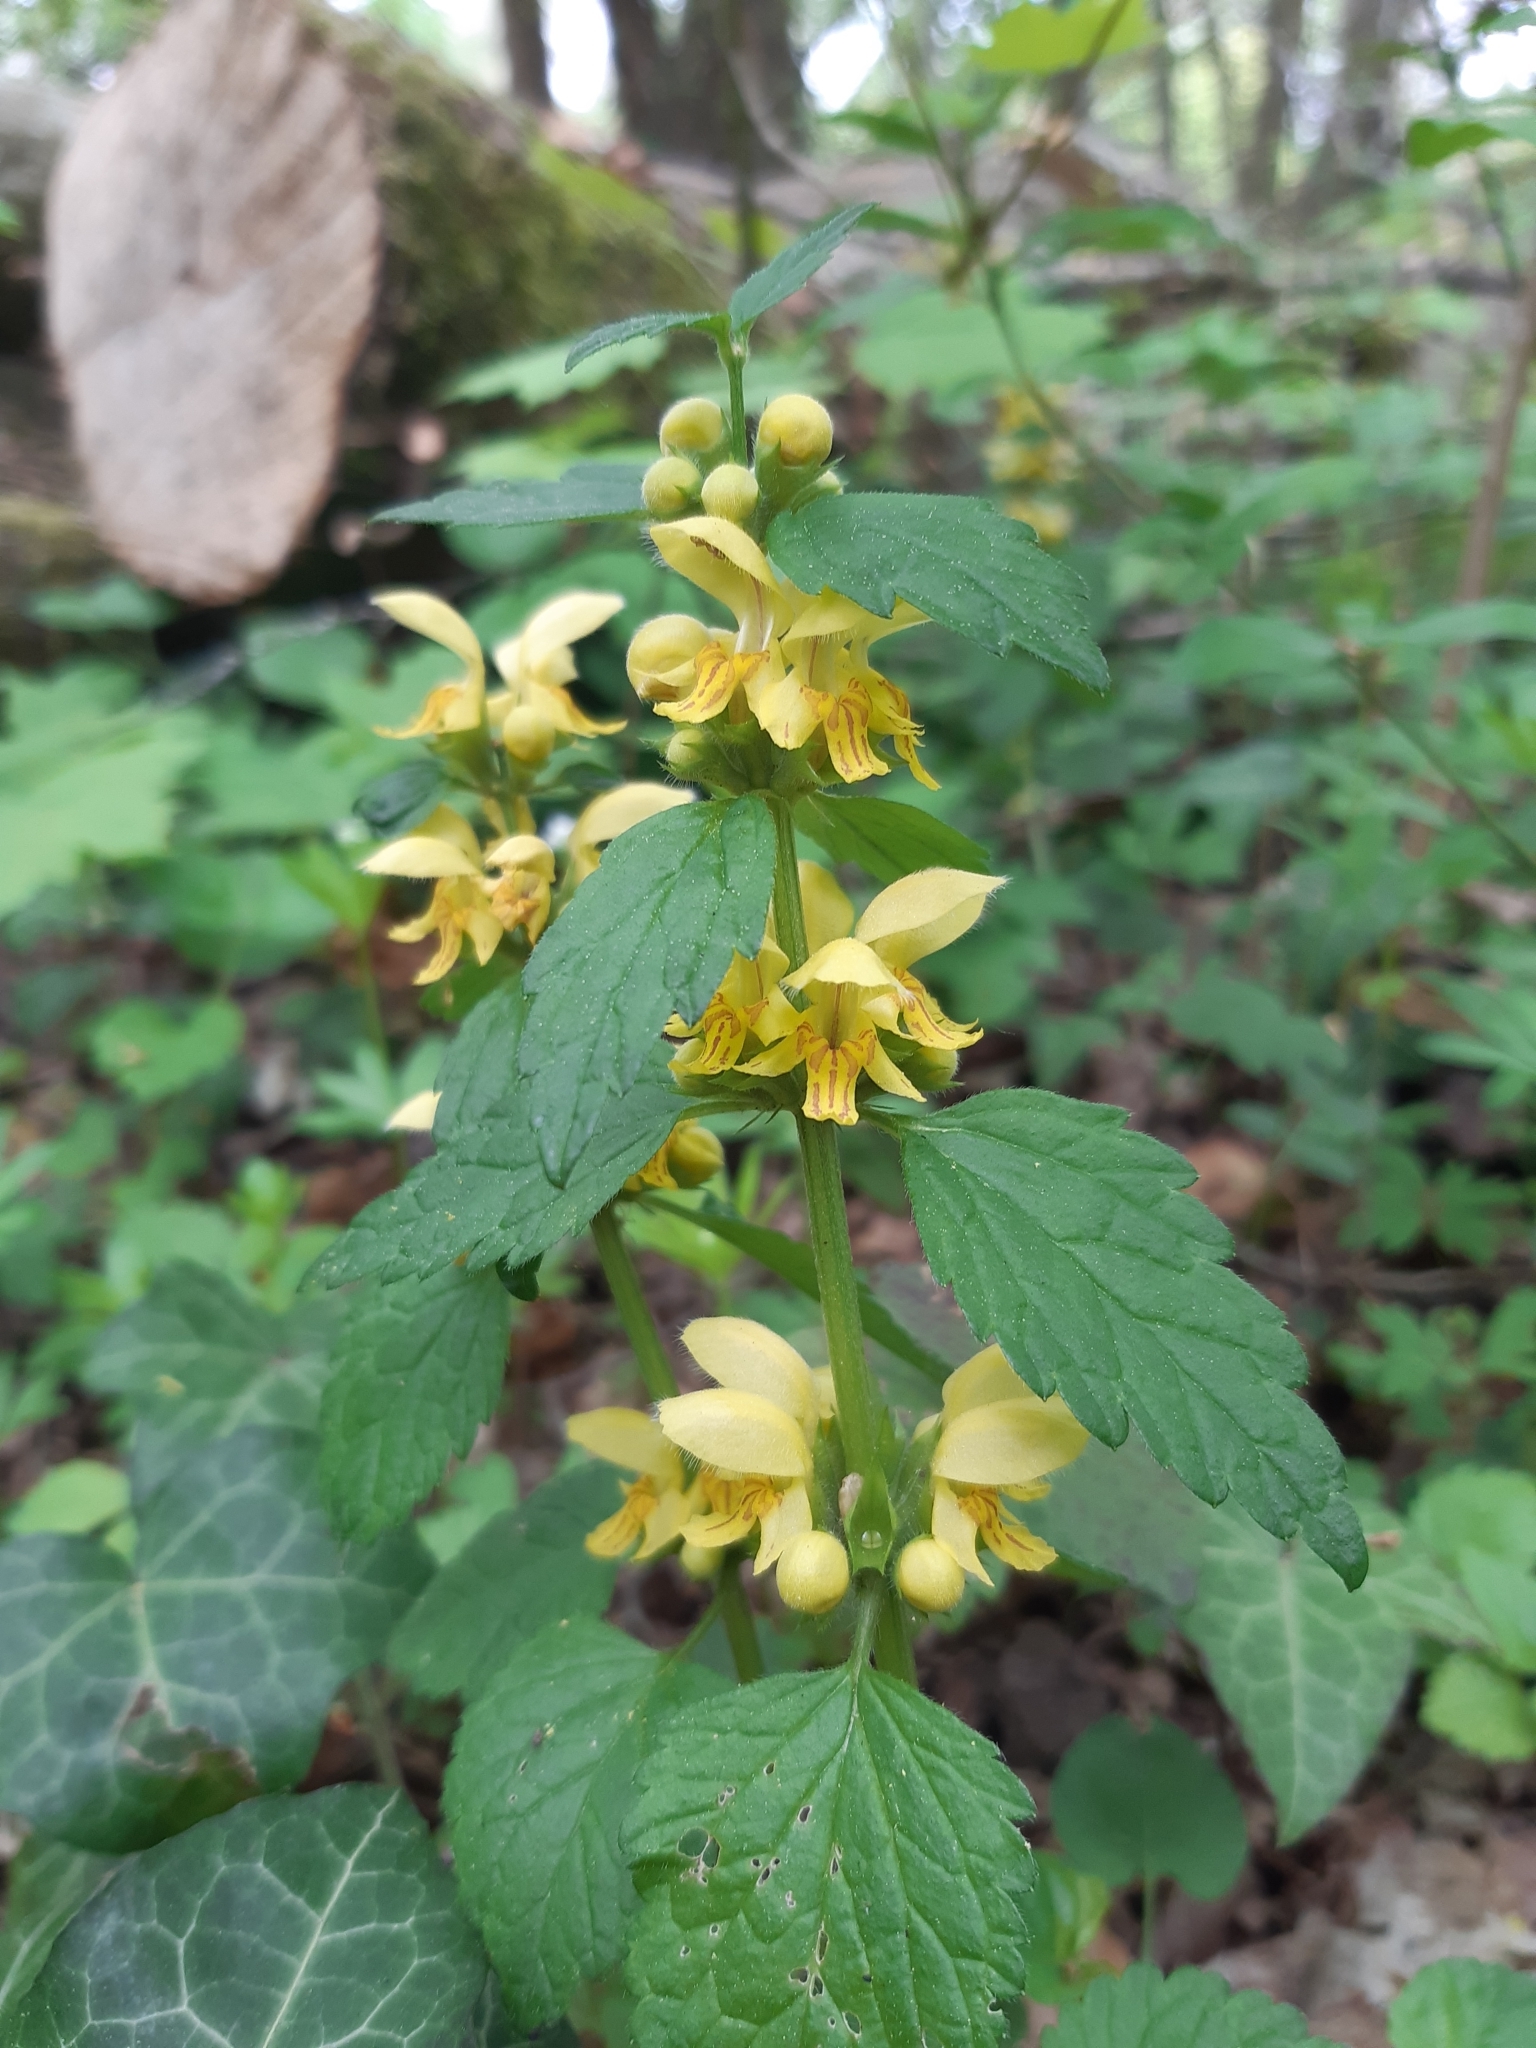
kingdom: Plantae
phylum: Tracheophyta
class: Magnoliopsida
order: Lamiales
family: Lamiaceae
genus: Lamium
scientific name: Lamium galeobdolon
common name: Yellow archangel
